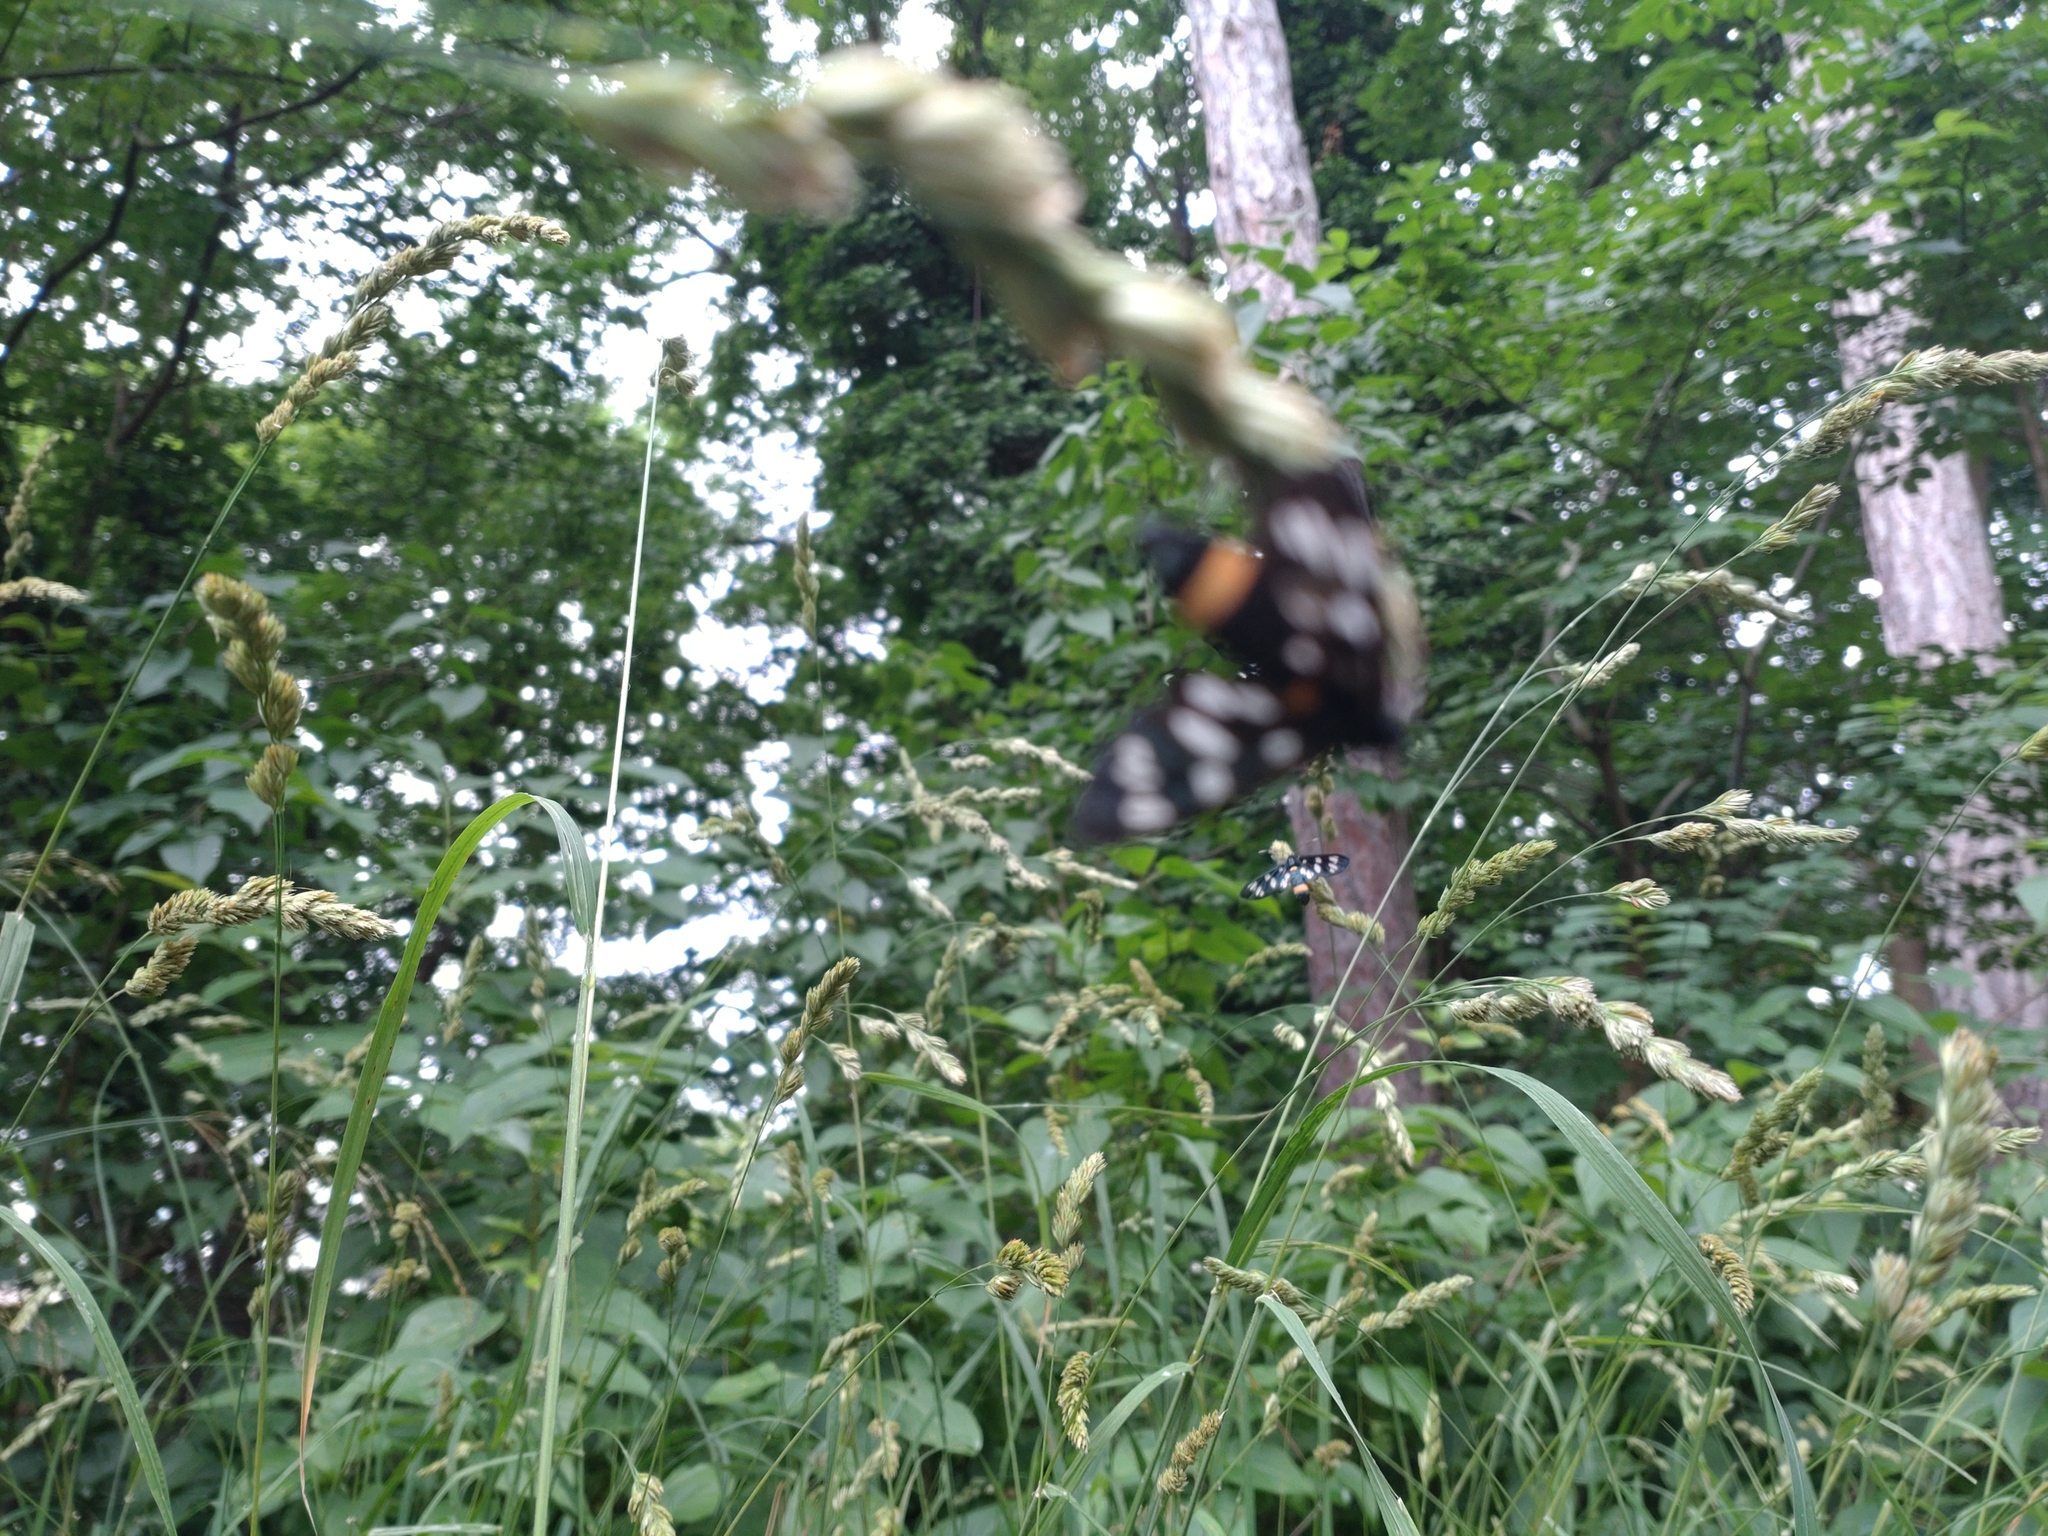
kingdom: Animalia
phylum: Arthropoda
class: Insecta
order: Lepidoptera
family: Erebidae
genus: Amata
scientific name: Amata phegea
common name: Nine-spotted
